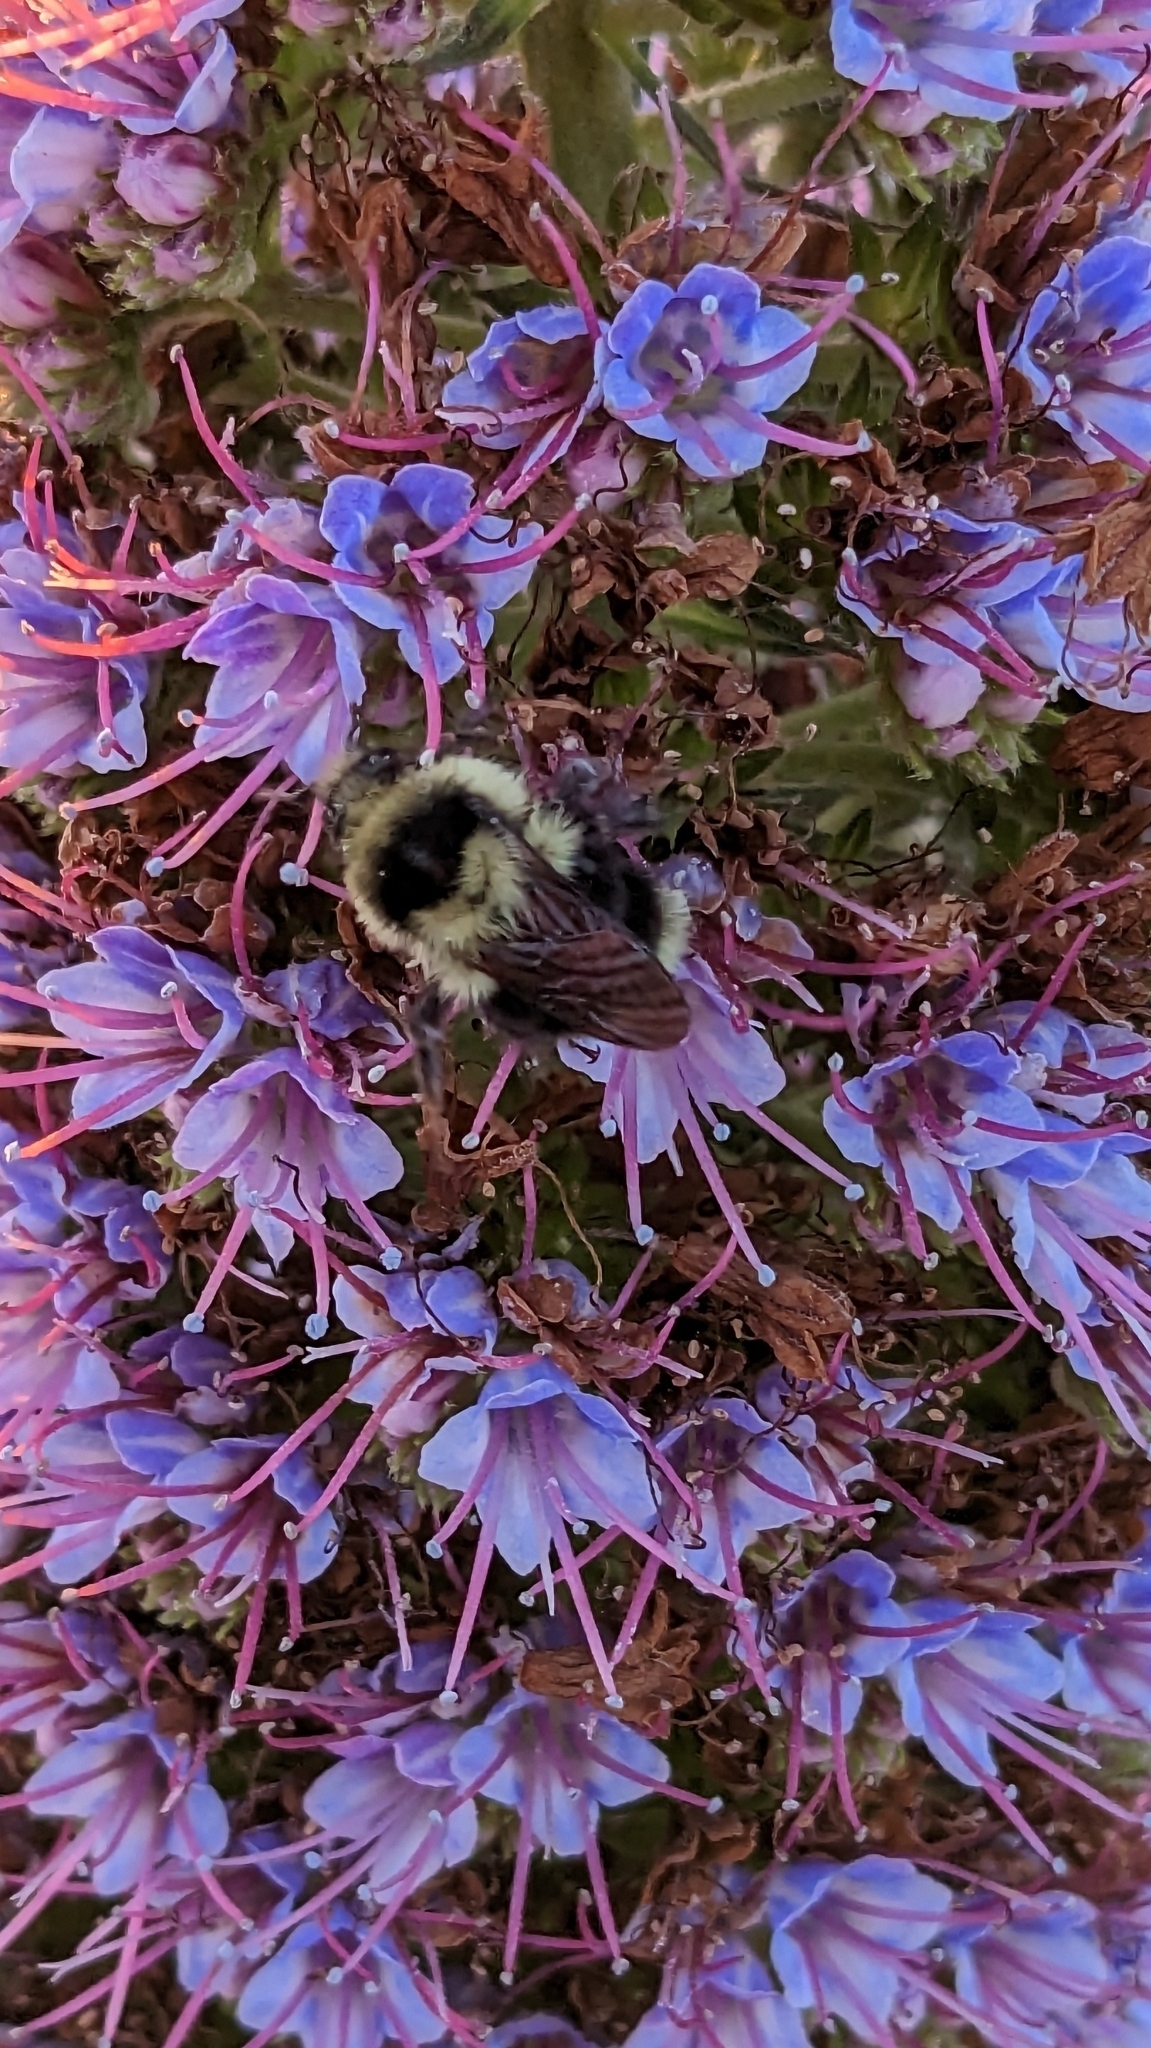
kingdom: Animalia
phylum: Arthropoda
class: Insecta
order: Hymenoptera
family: Apidae
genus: Bombus
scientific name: Bombus melanopygus
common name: Black tail bumble bee
